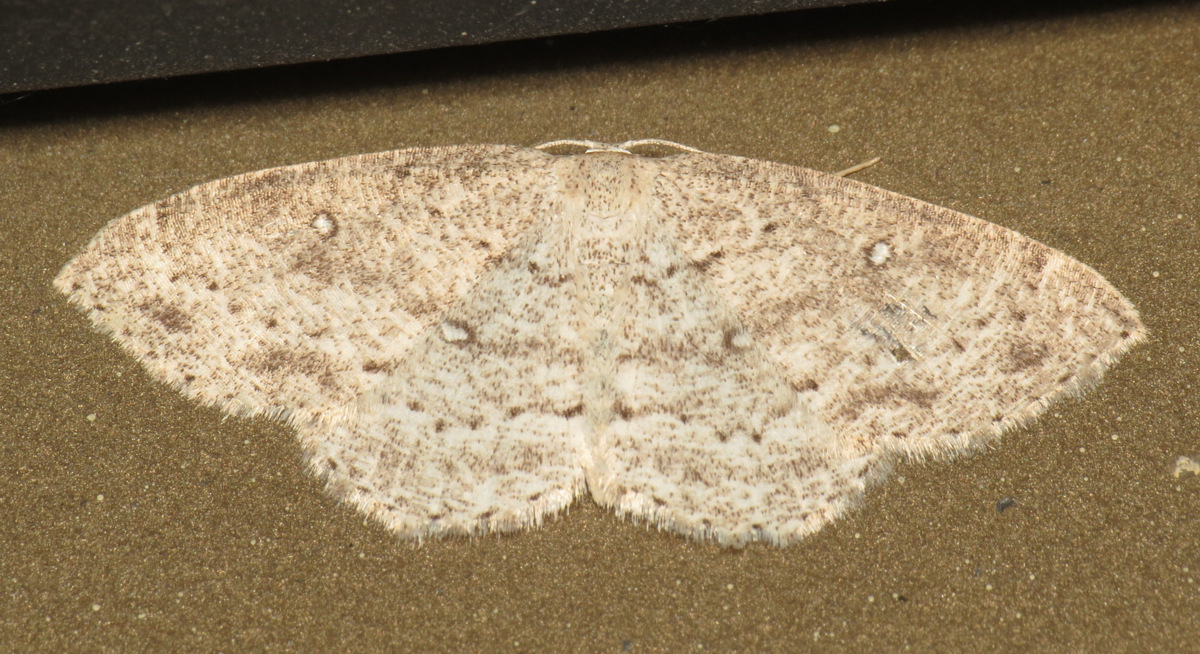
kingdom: Animalia
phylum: Arthropoda
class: Insecta
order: Lepidoptera
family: Geometridae
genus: Cyclophora
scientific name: Cyclophora pendulinaria
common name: Sweet fern geometer
